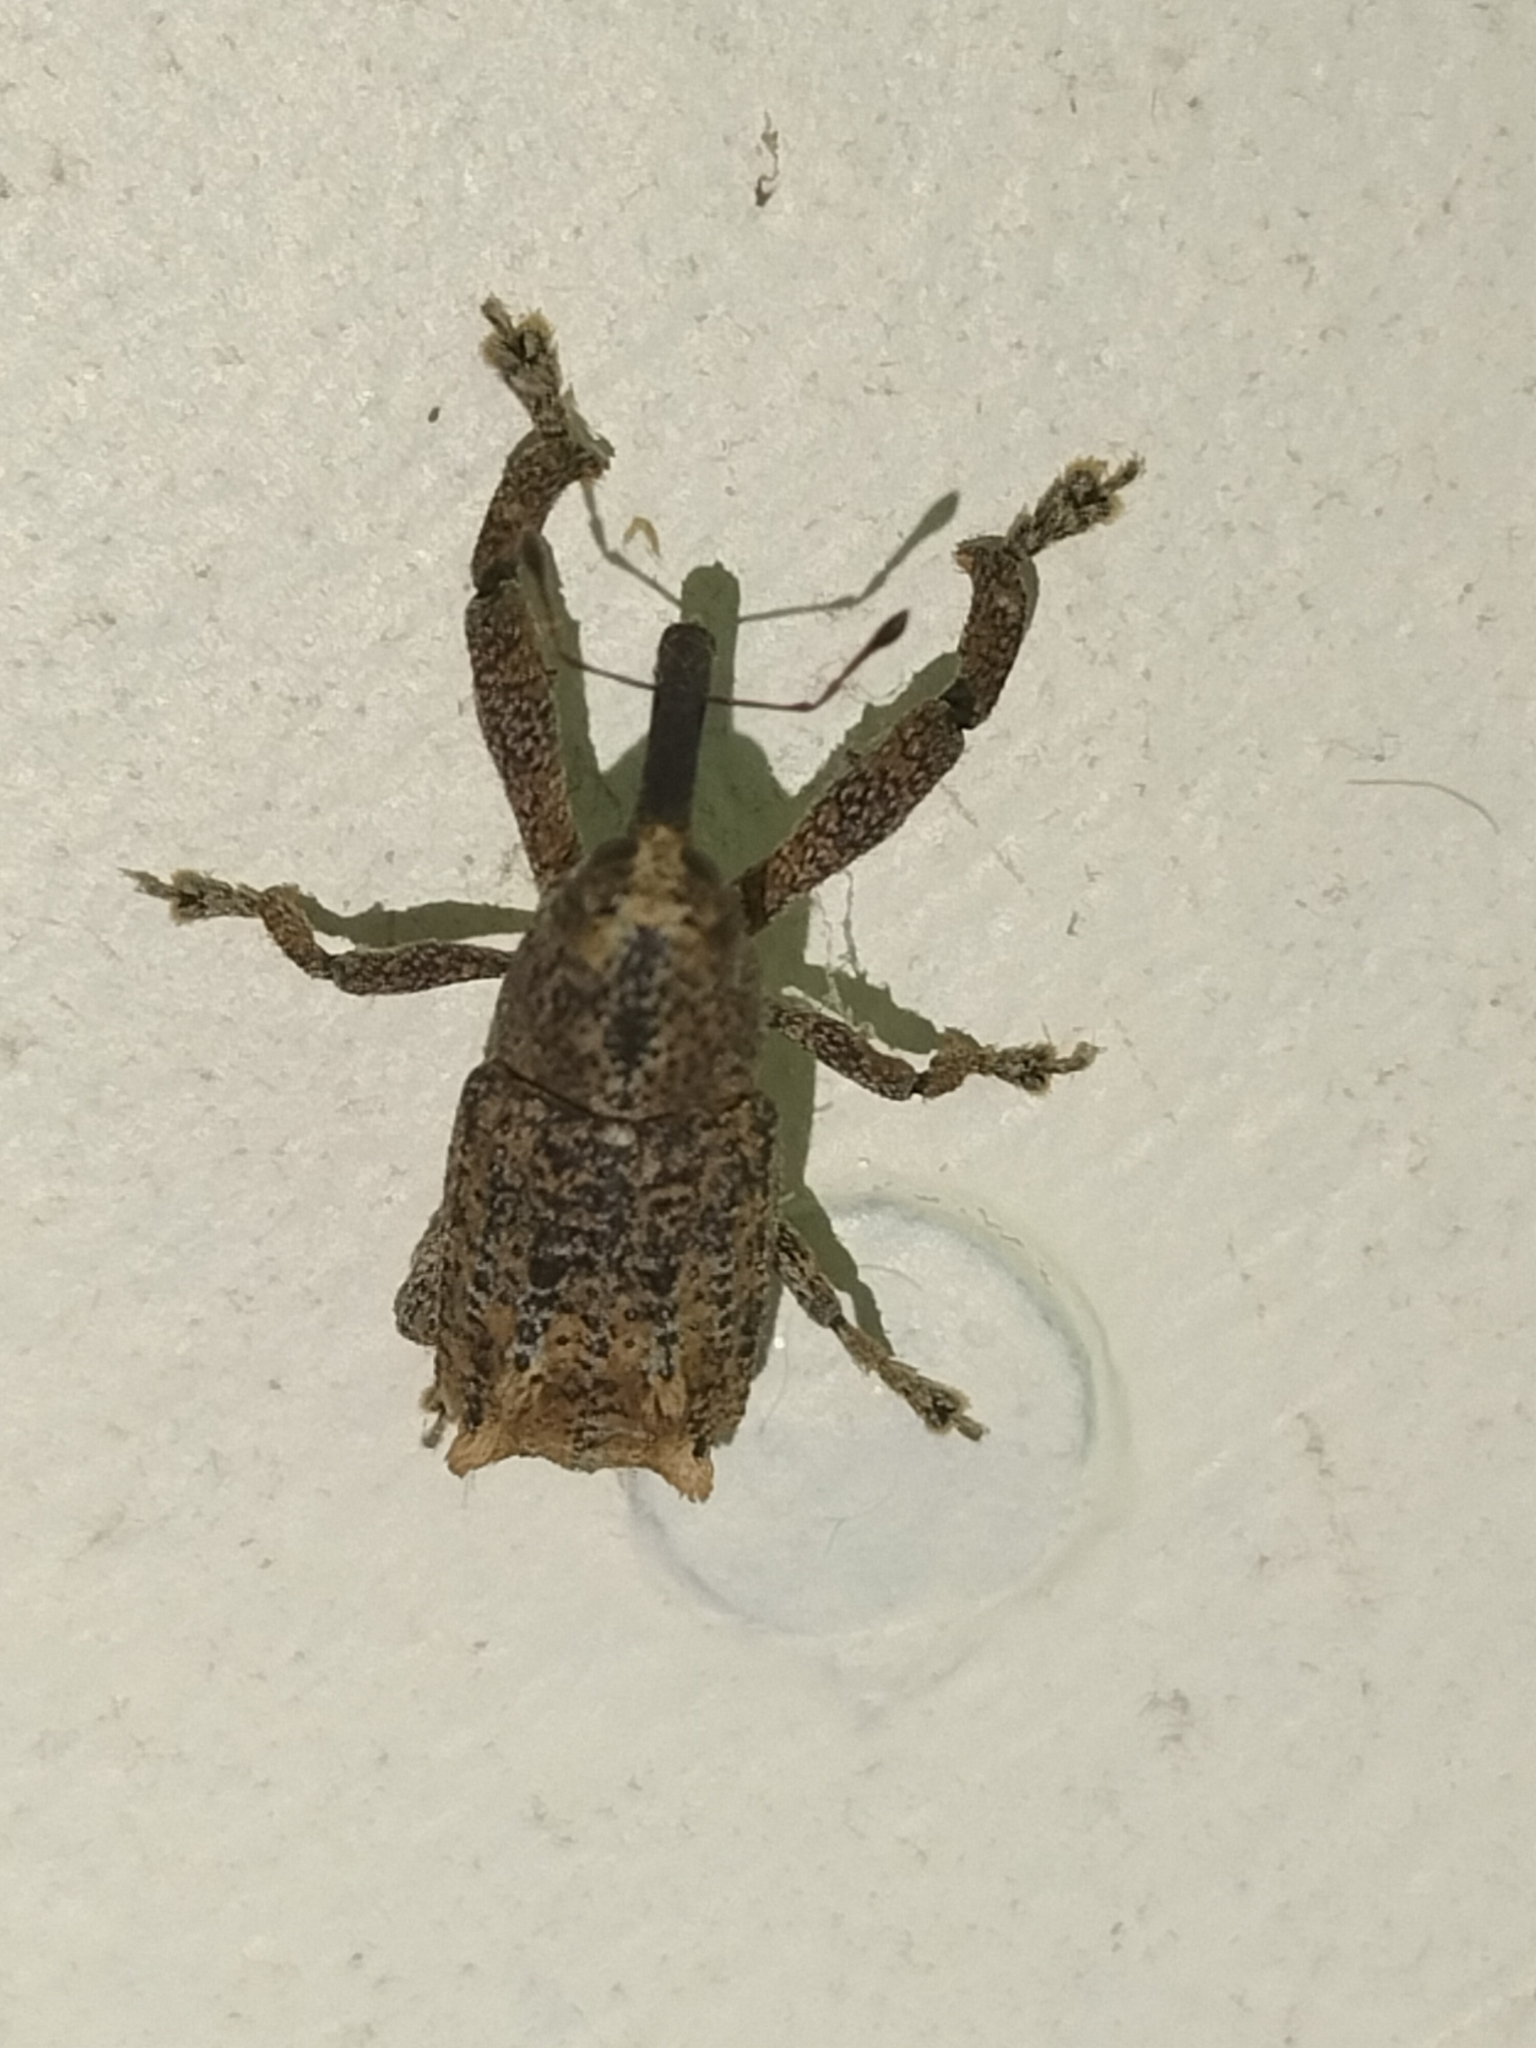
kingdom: Animalia
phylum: Arthropoda
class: Insecta
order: Coleoptera
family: Curculionidae
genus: Orthorhinus
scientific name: Orthorhinus cylindrirostris
